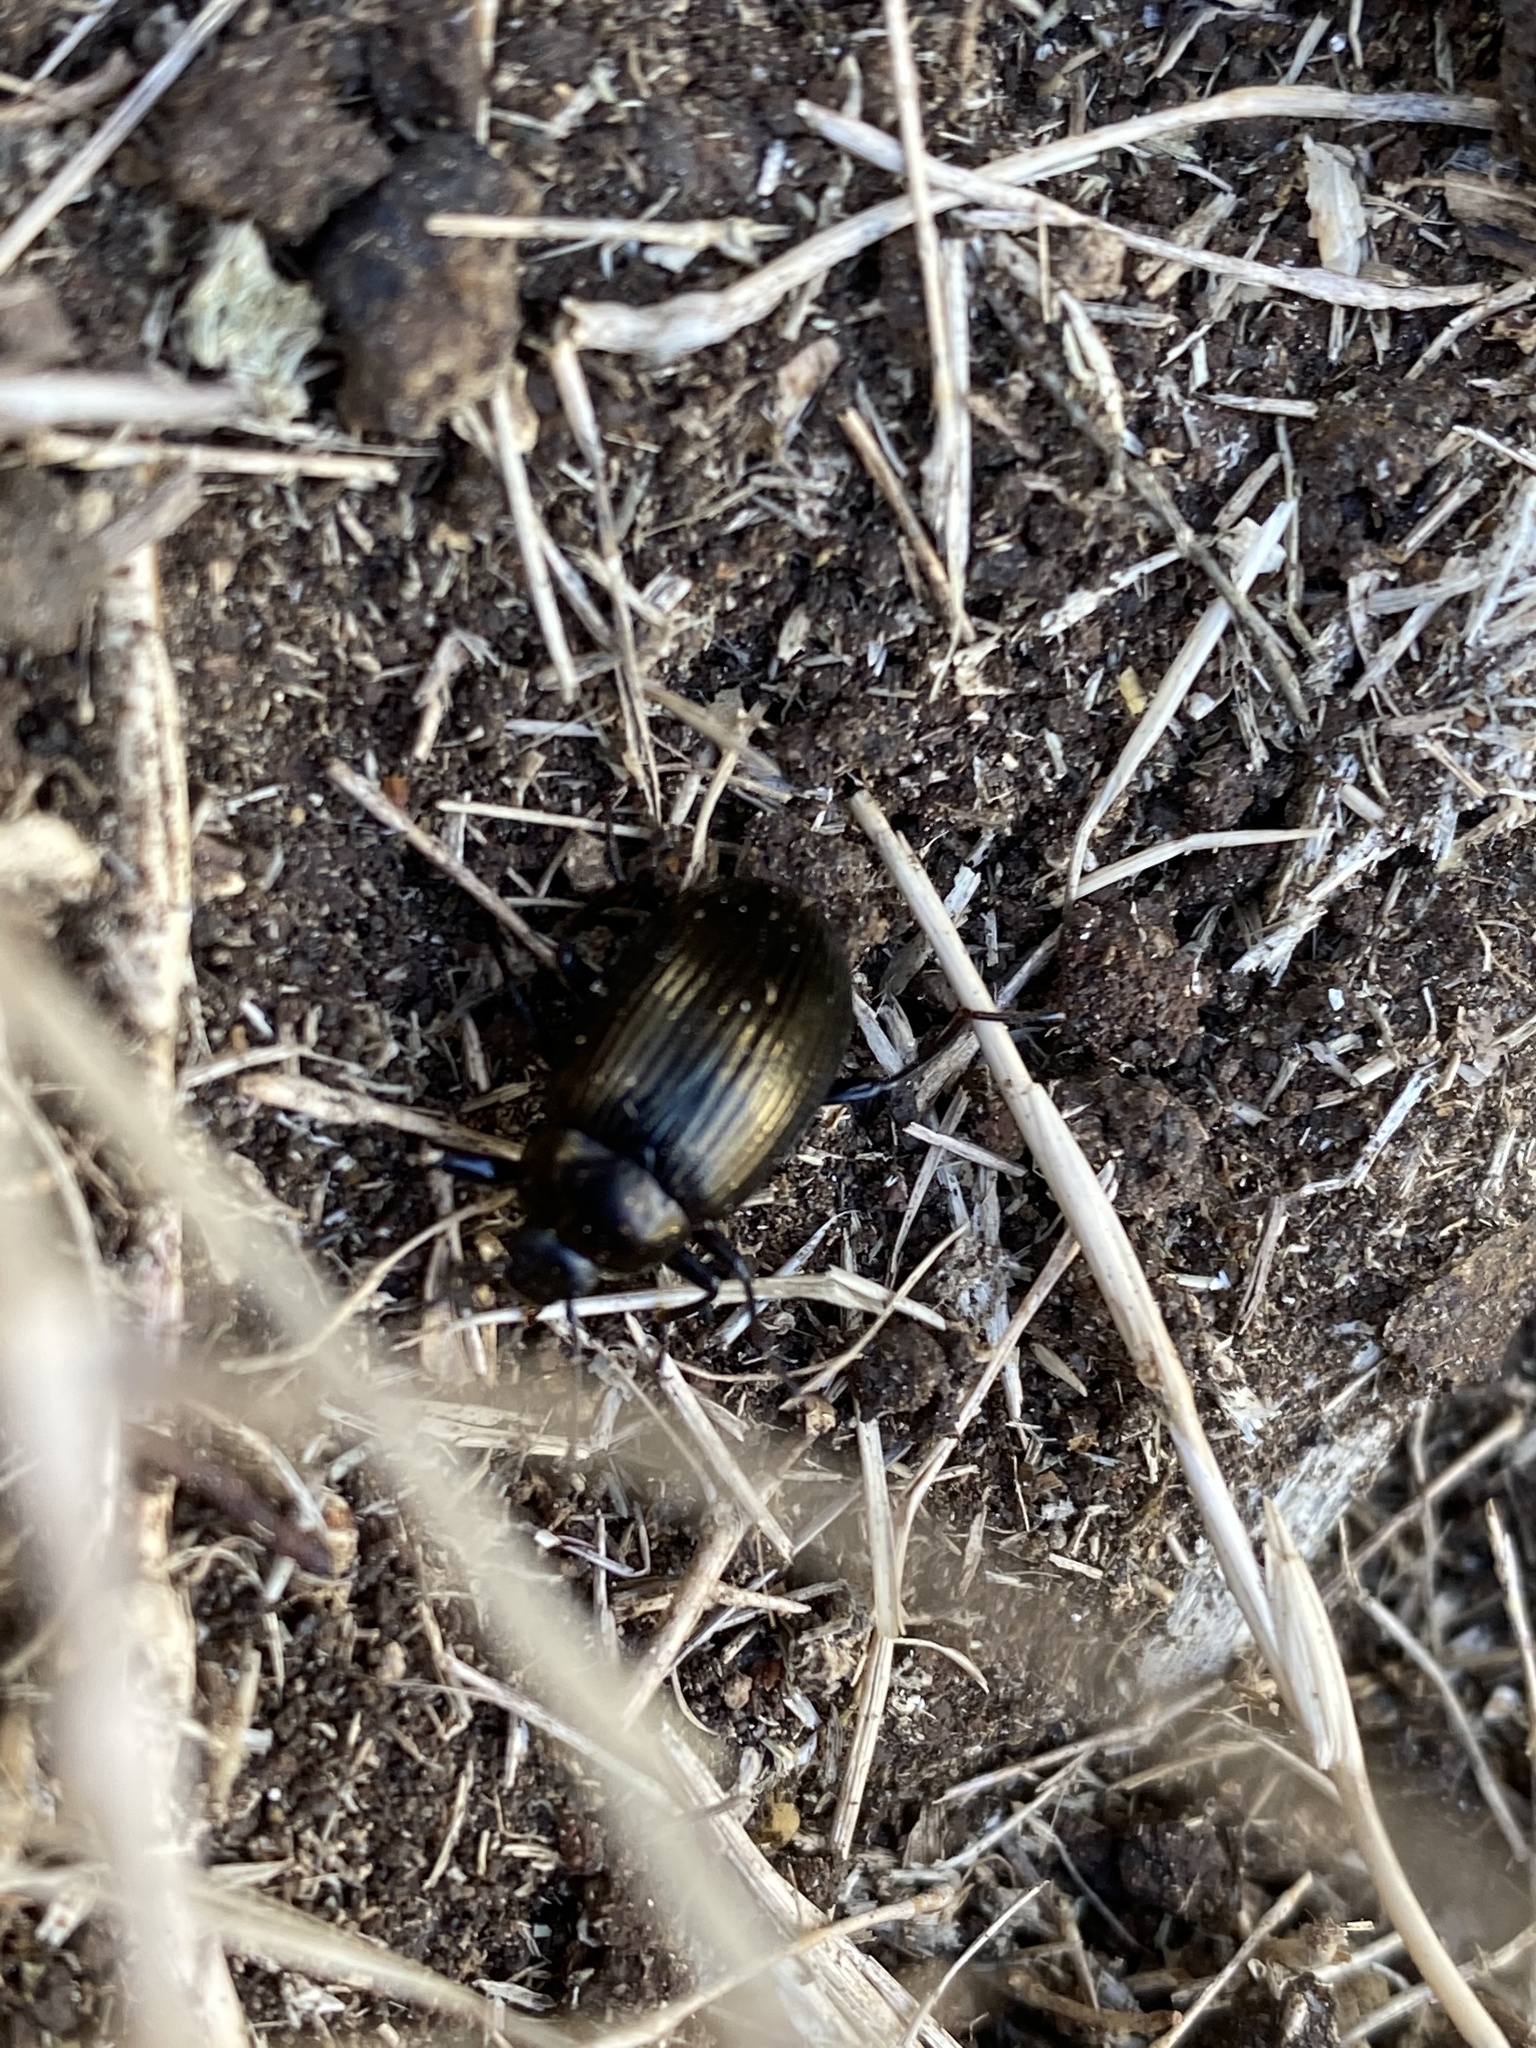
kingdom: Animalia
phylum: Arthropoda
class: Insecta
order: Coleoptera
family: Tenebrionidae
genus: Amarygmus
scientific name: Amarygmus morio
